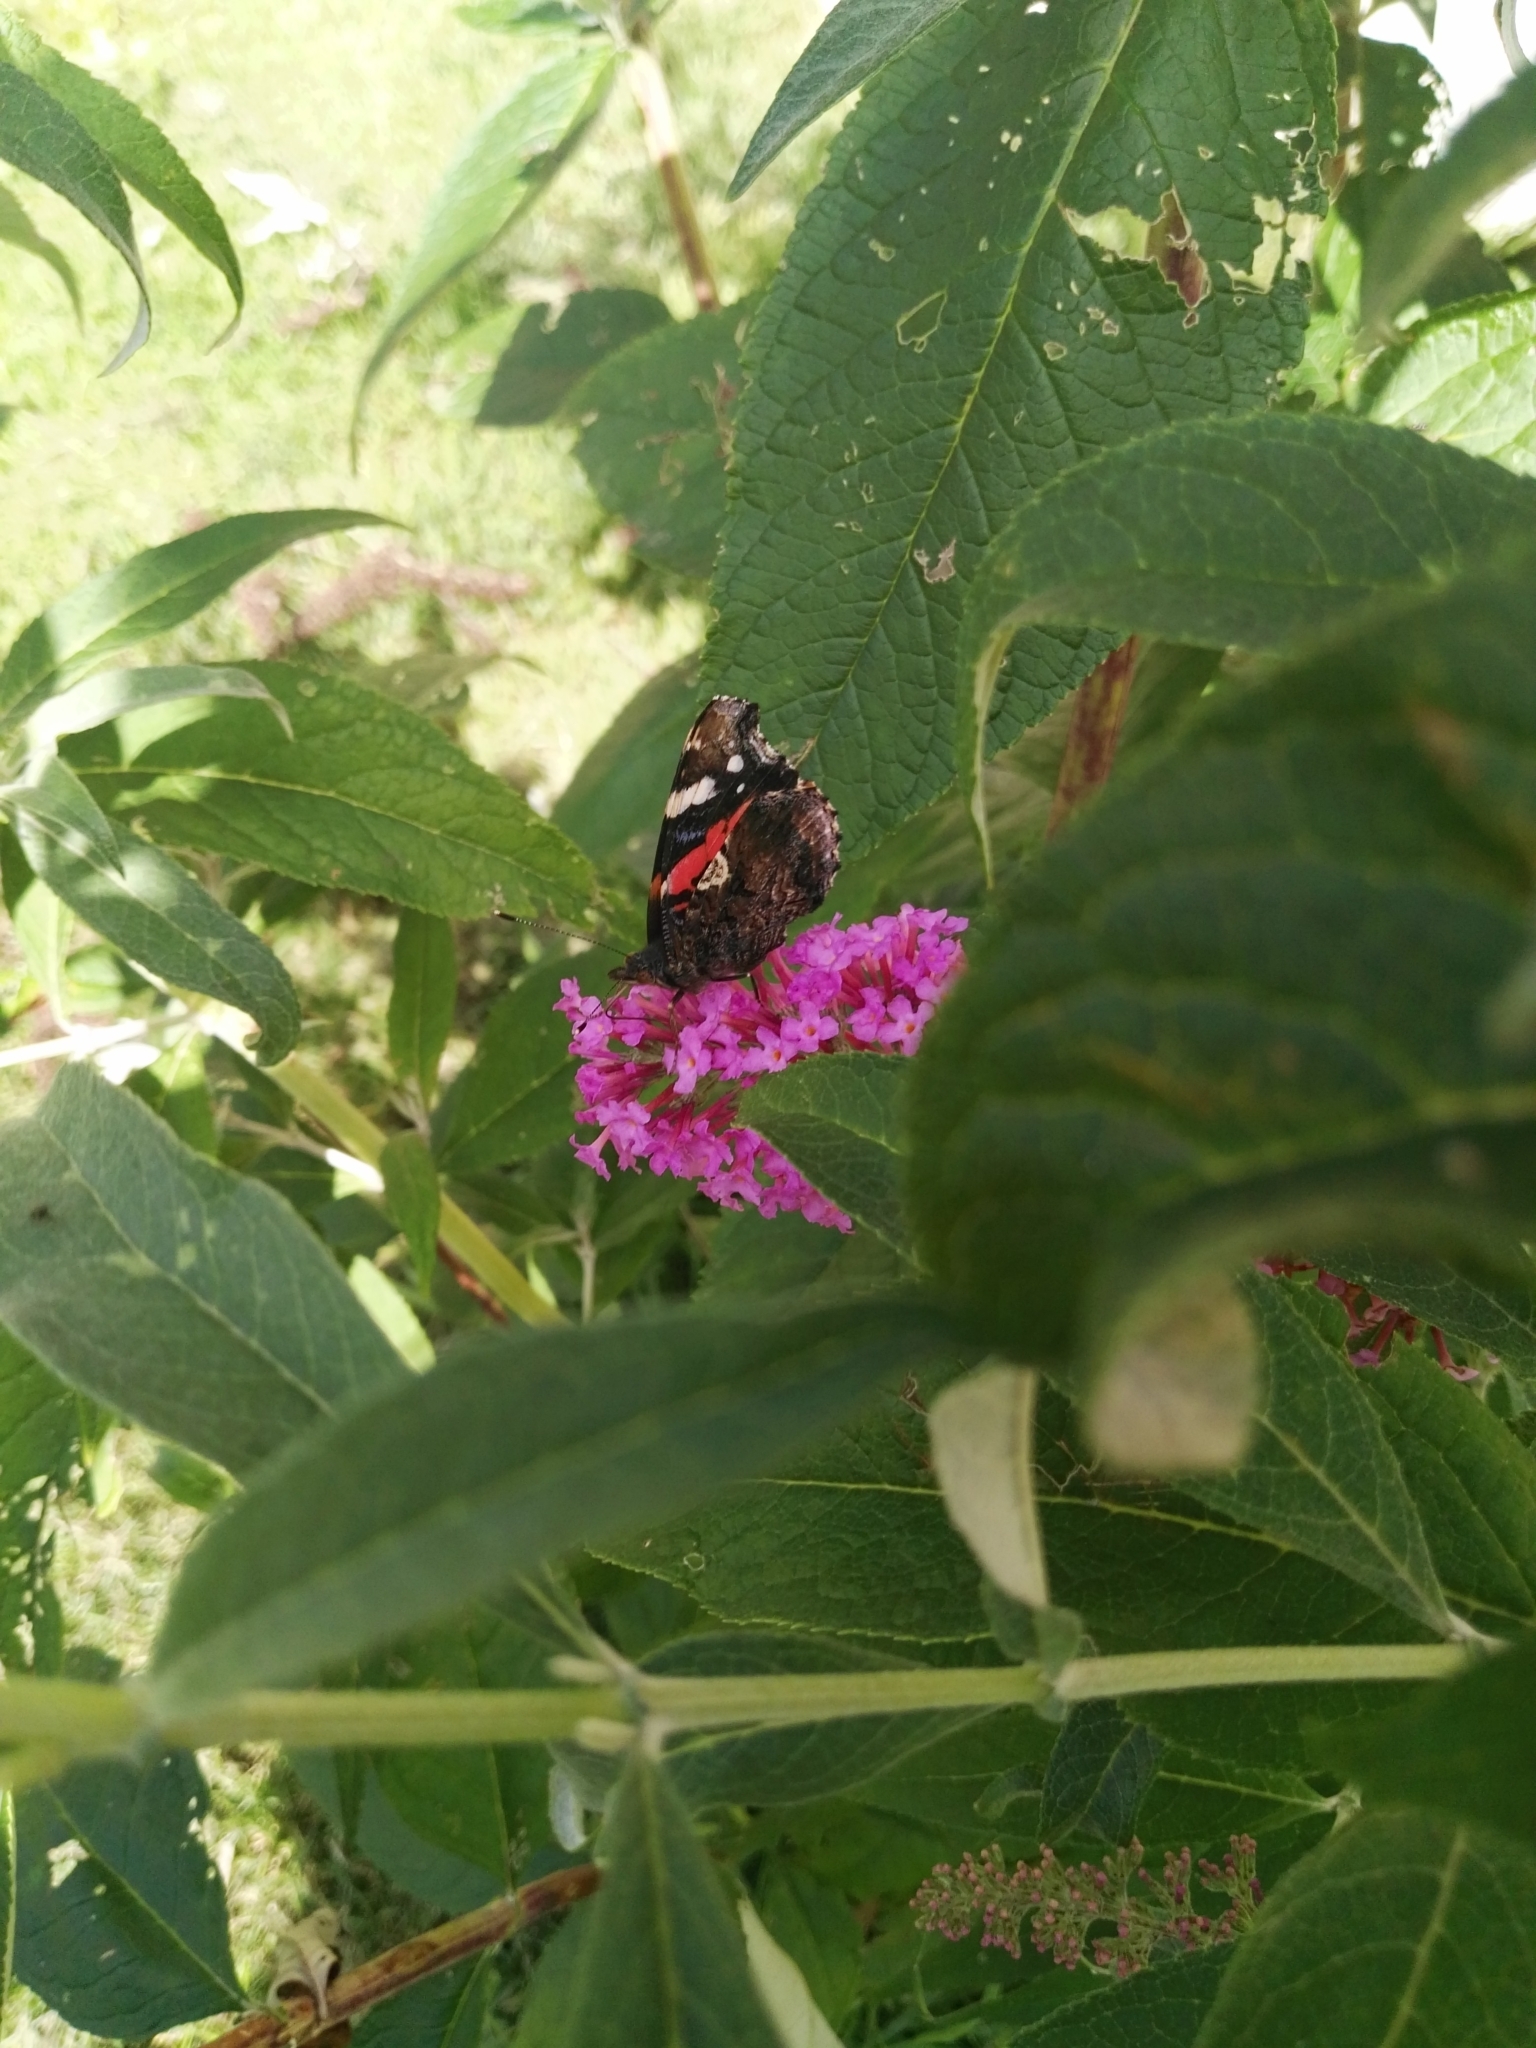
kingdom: Animalia
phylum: Arthropoda
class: Insecta
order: Lepidoptera
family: Nymphalidae
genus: Vanessa
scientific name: Vanessa atalanta
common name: Red admiral
